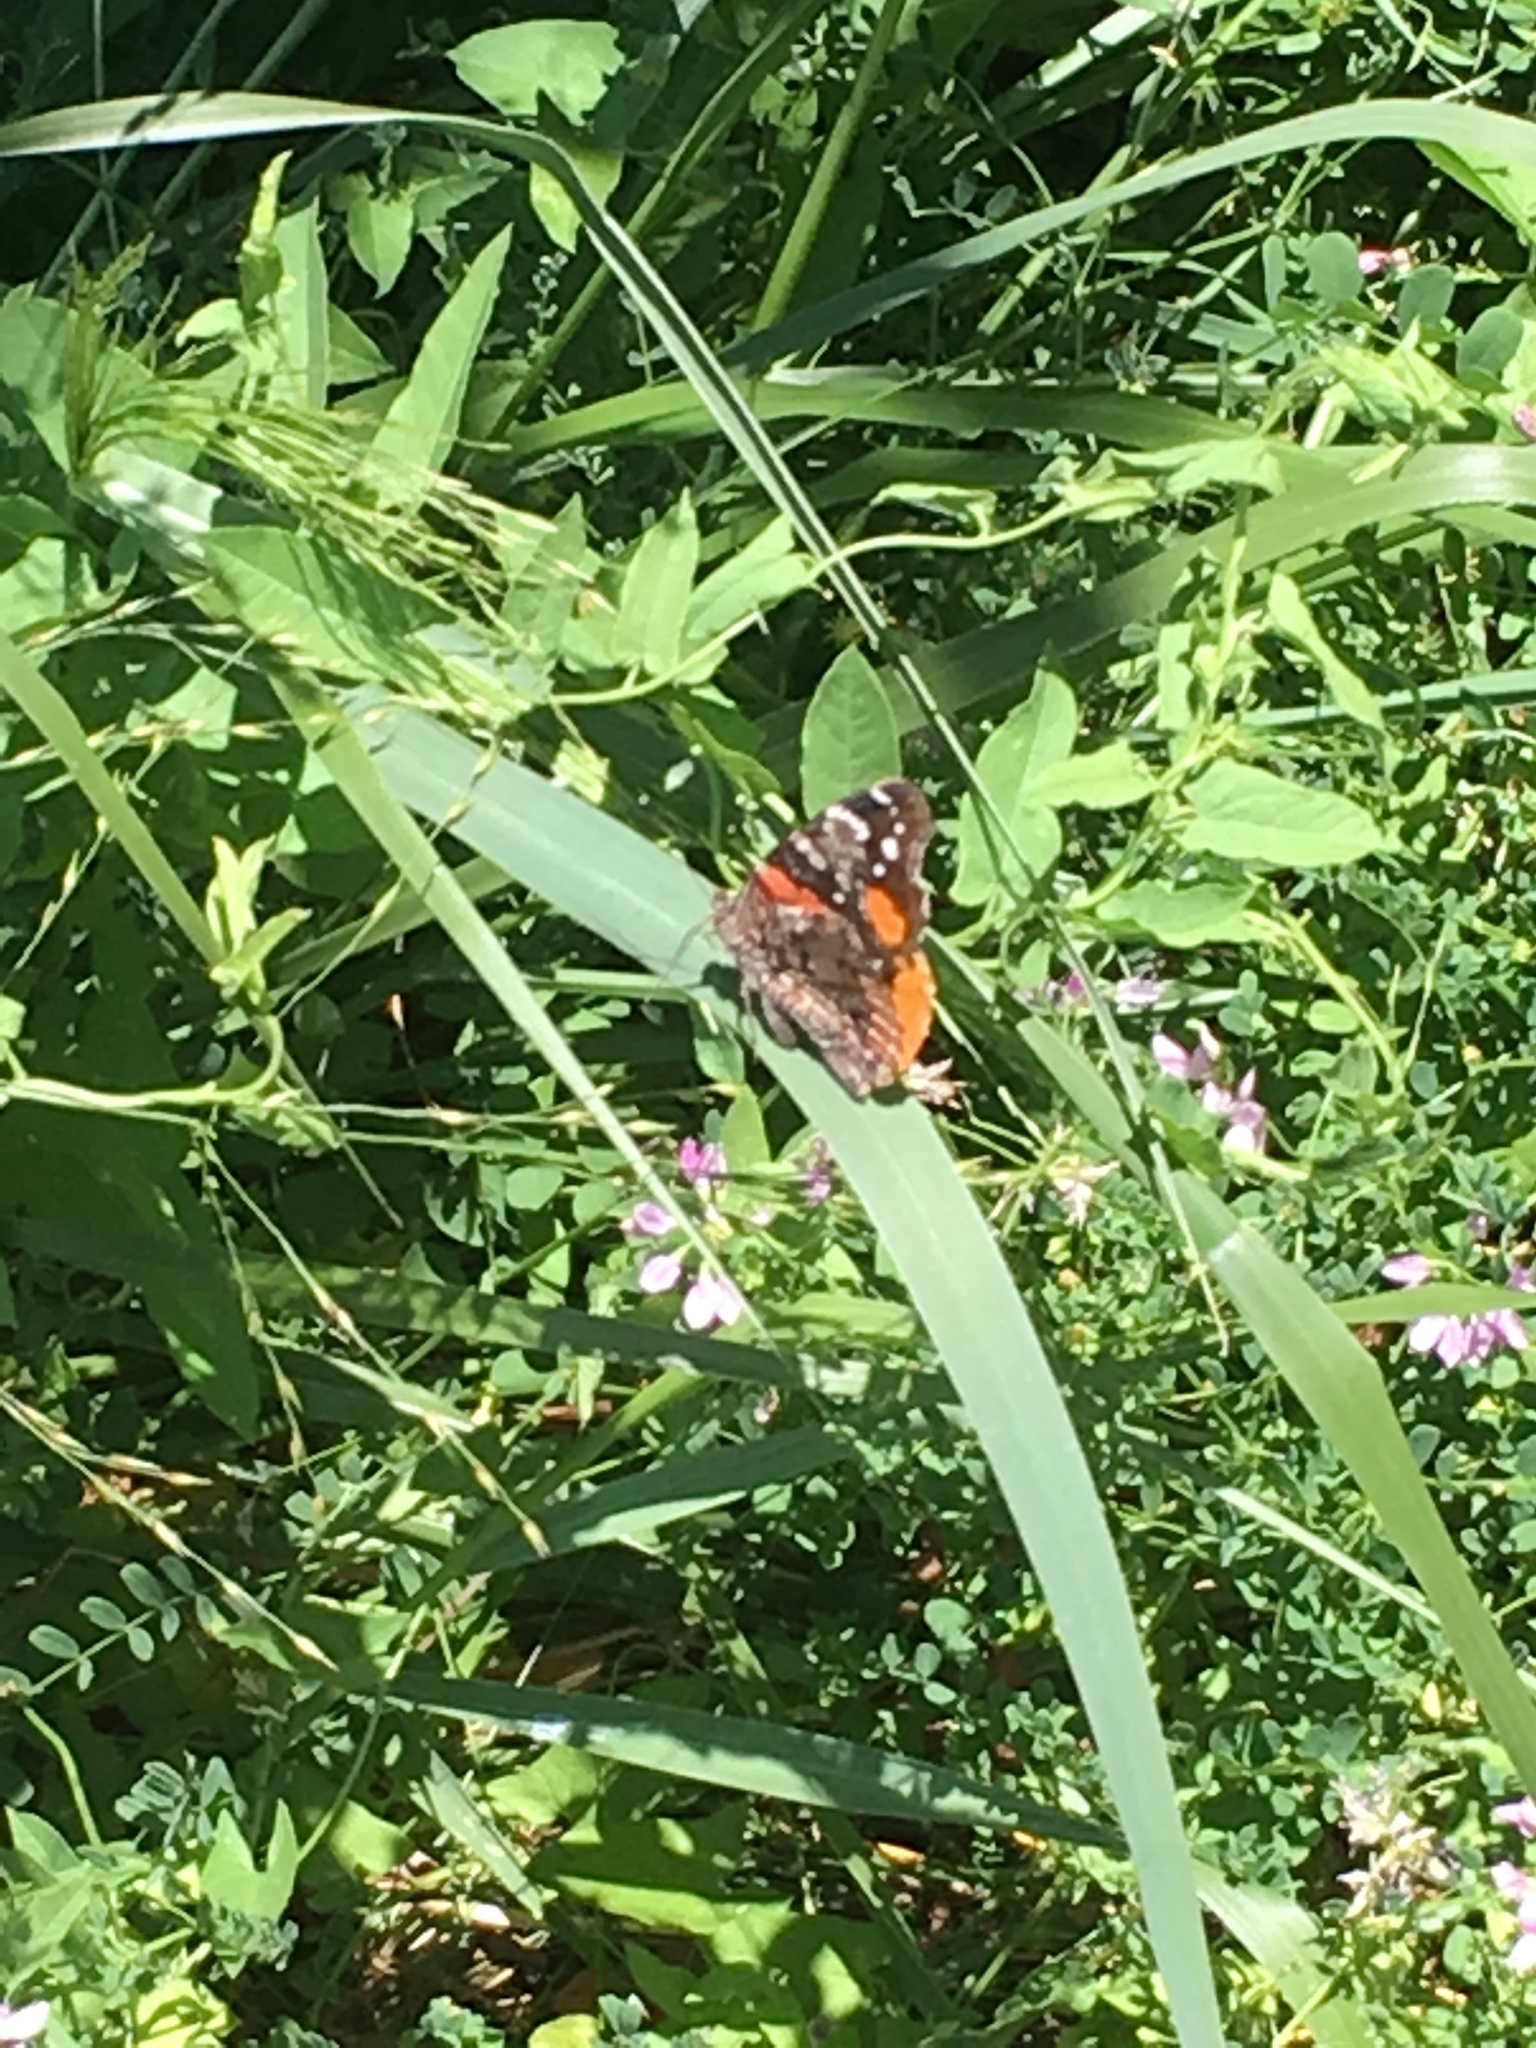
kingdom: Animalia
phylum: Arthropoda
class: Insecta
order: Lepidoptera
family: Nymphalidae
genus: Vanessa
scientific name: Vanessa atalanta
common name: Red admiral
